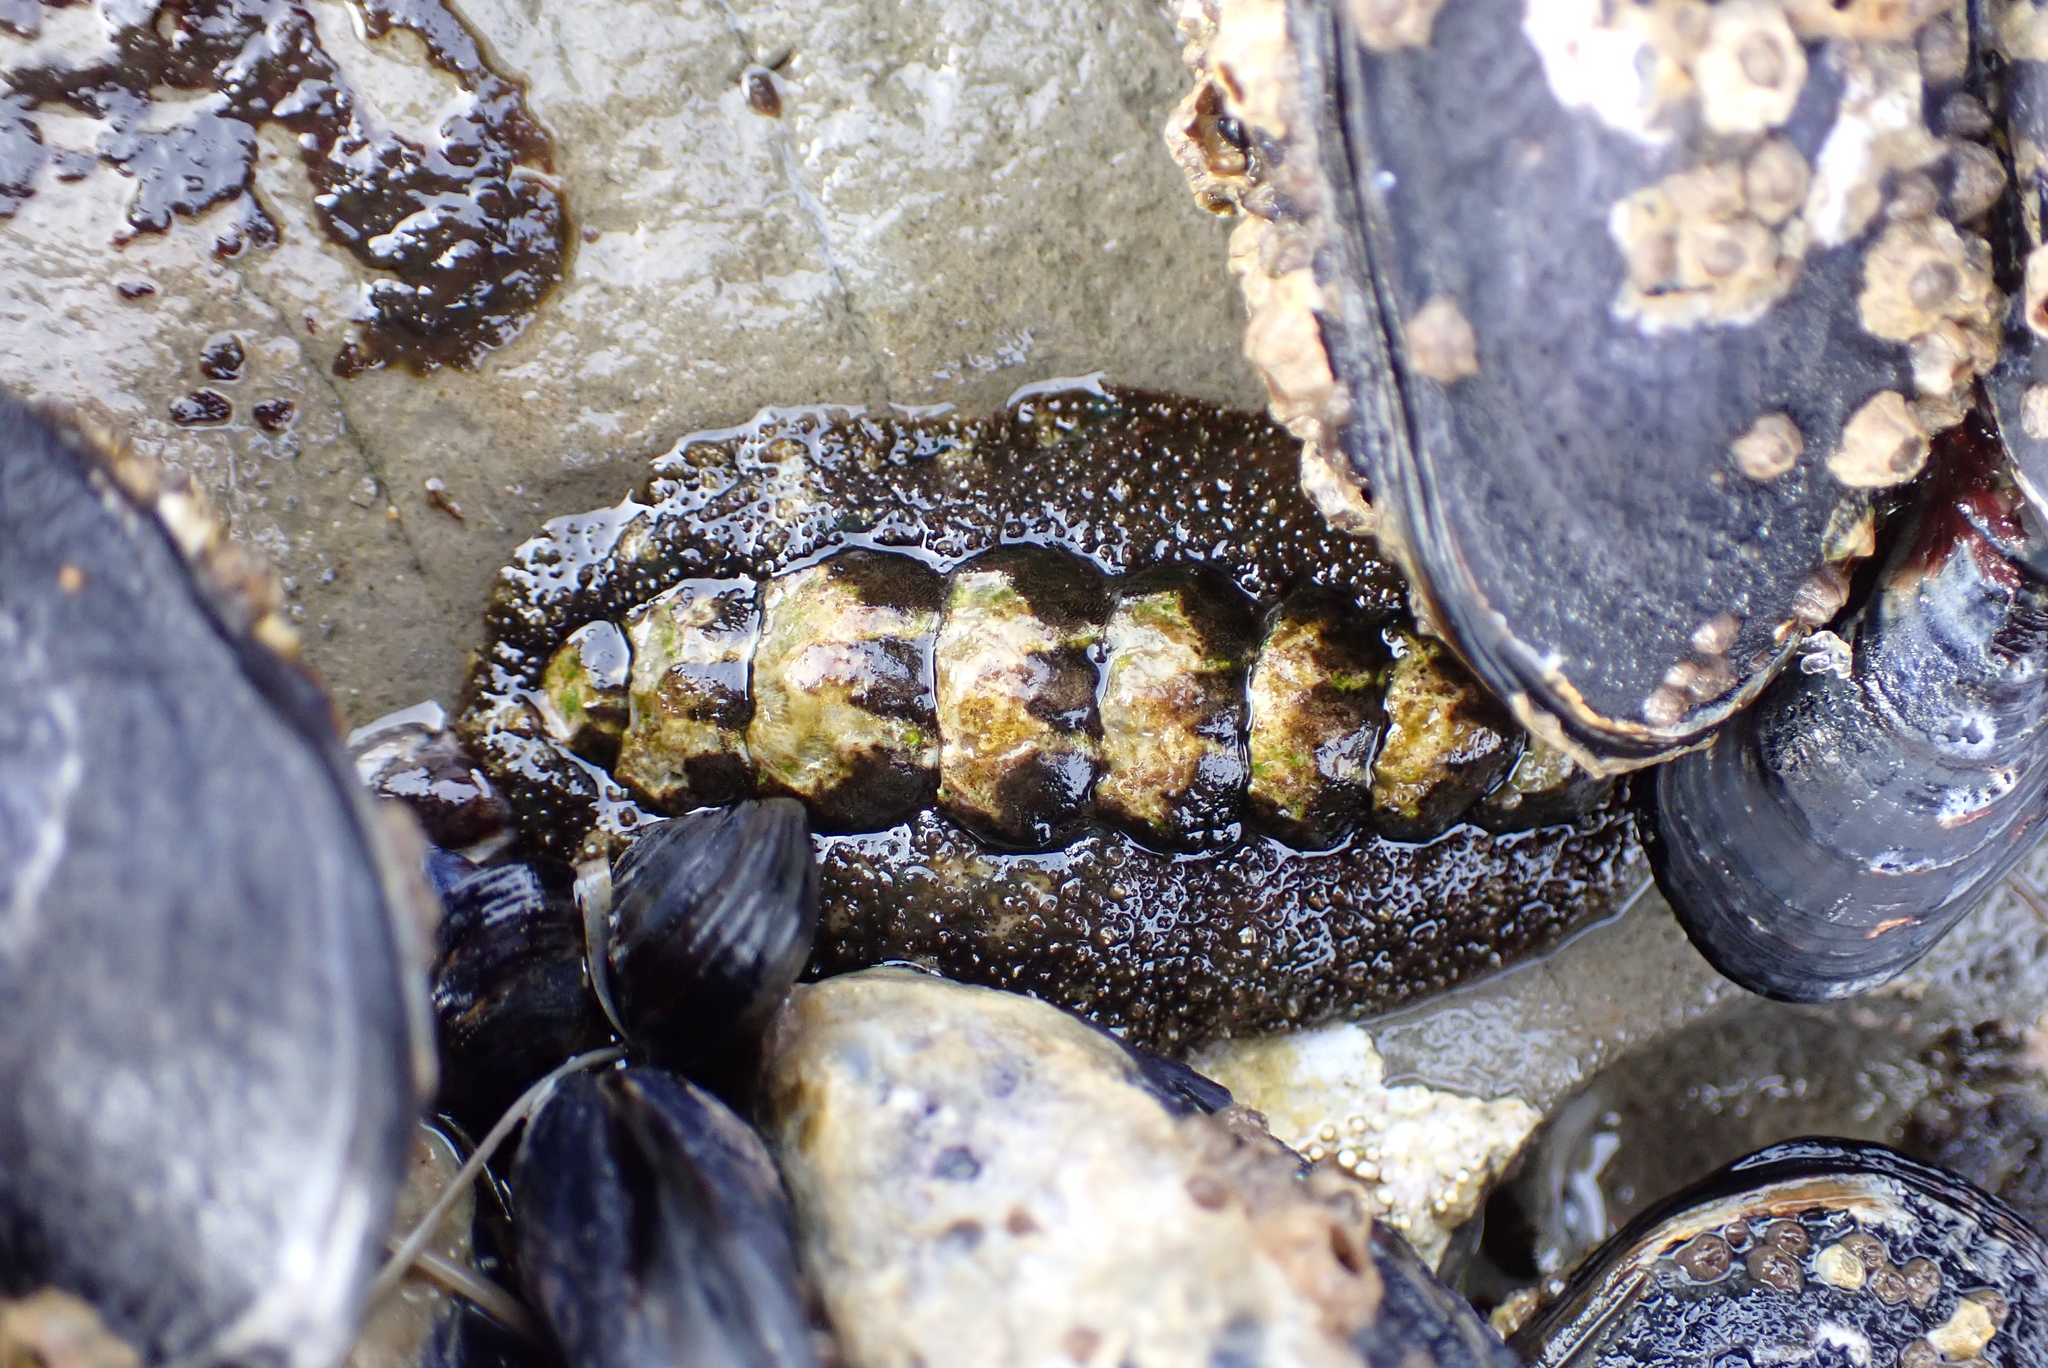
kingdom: Animalia
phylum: Mollusca
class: Polyplacophora
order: Chitonida
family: Tonicellidae
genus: Nuttallina
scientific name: Nuttallina californica
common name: California nuttall chiton
